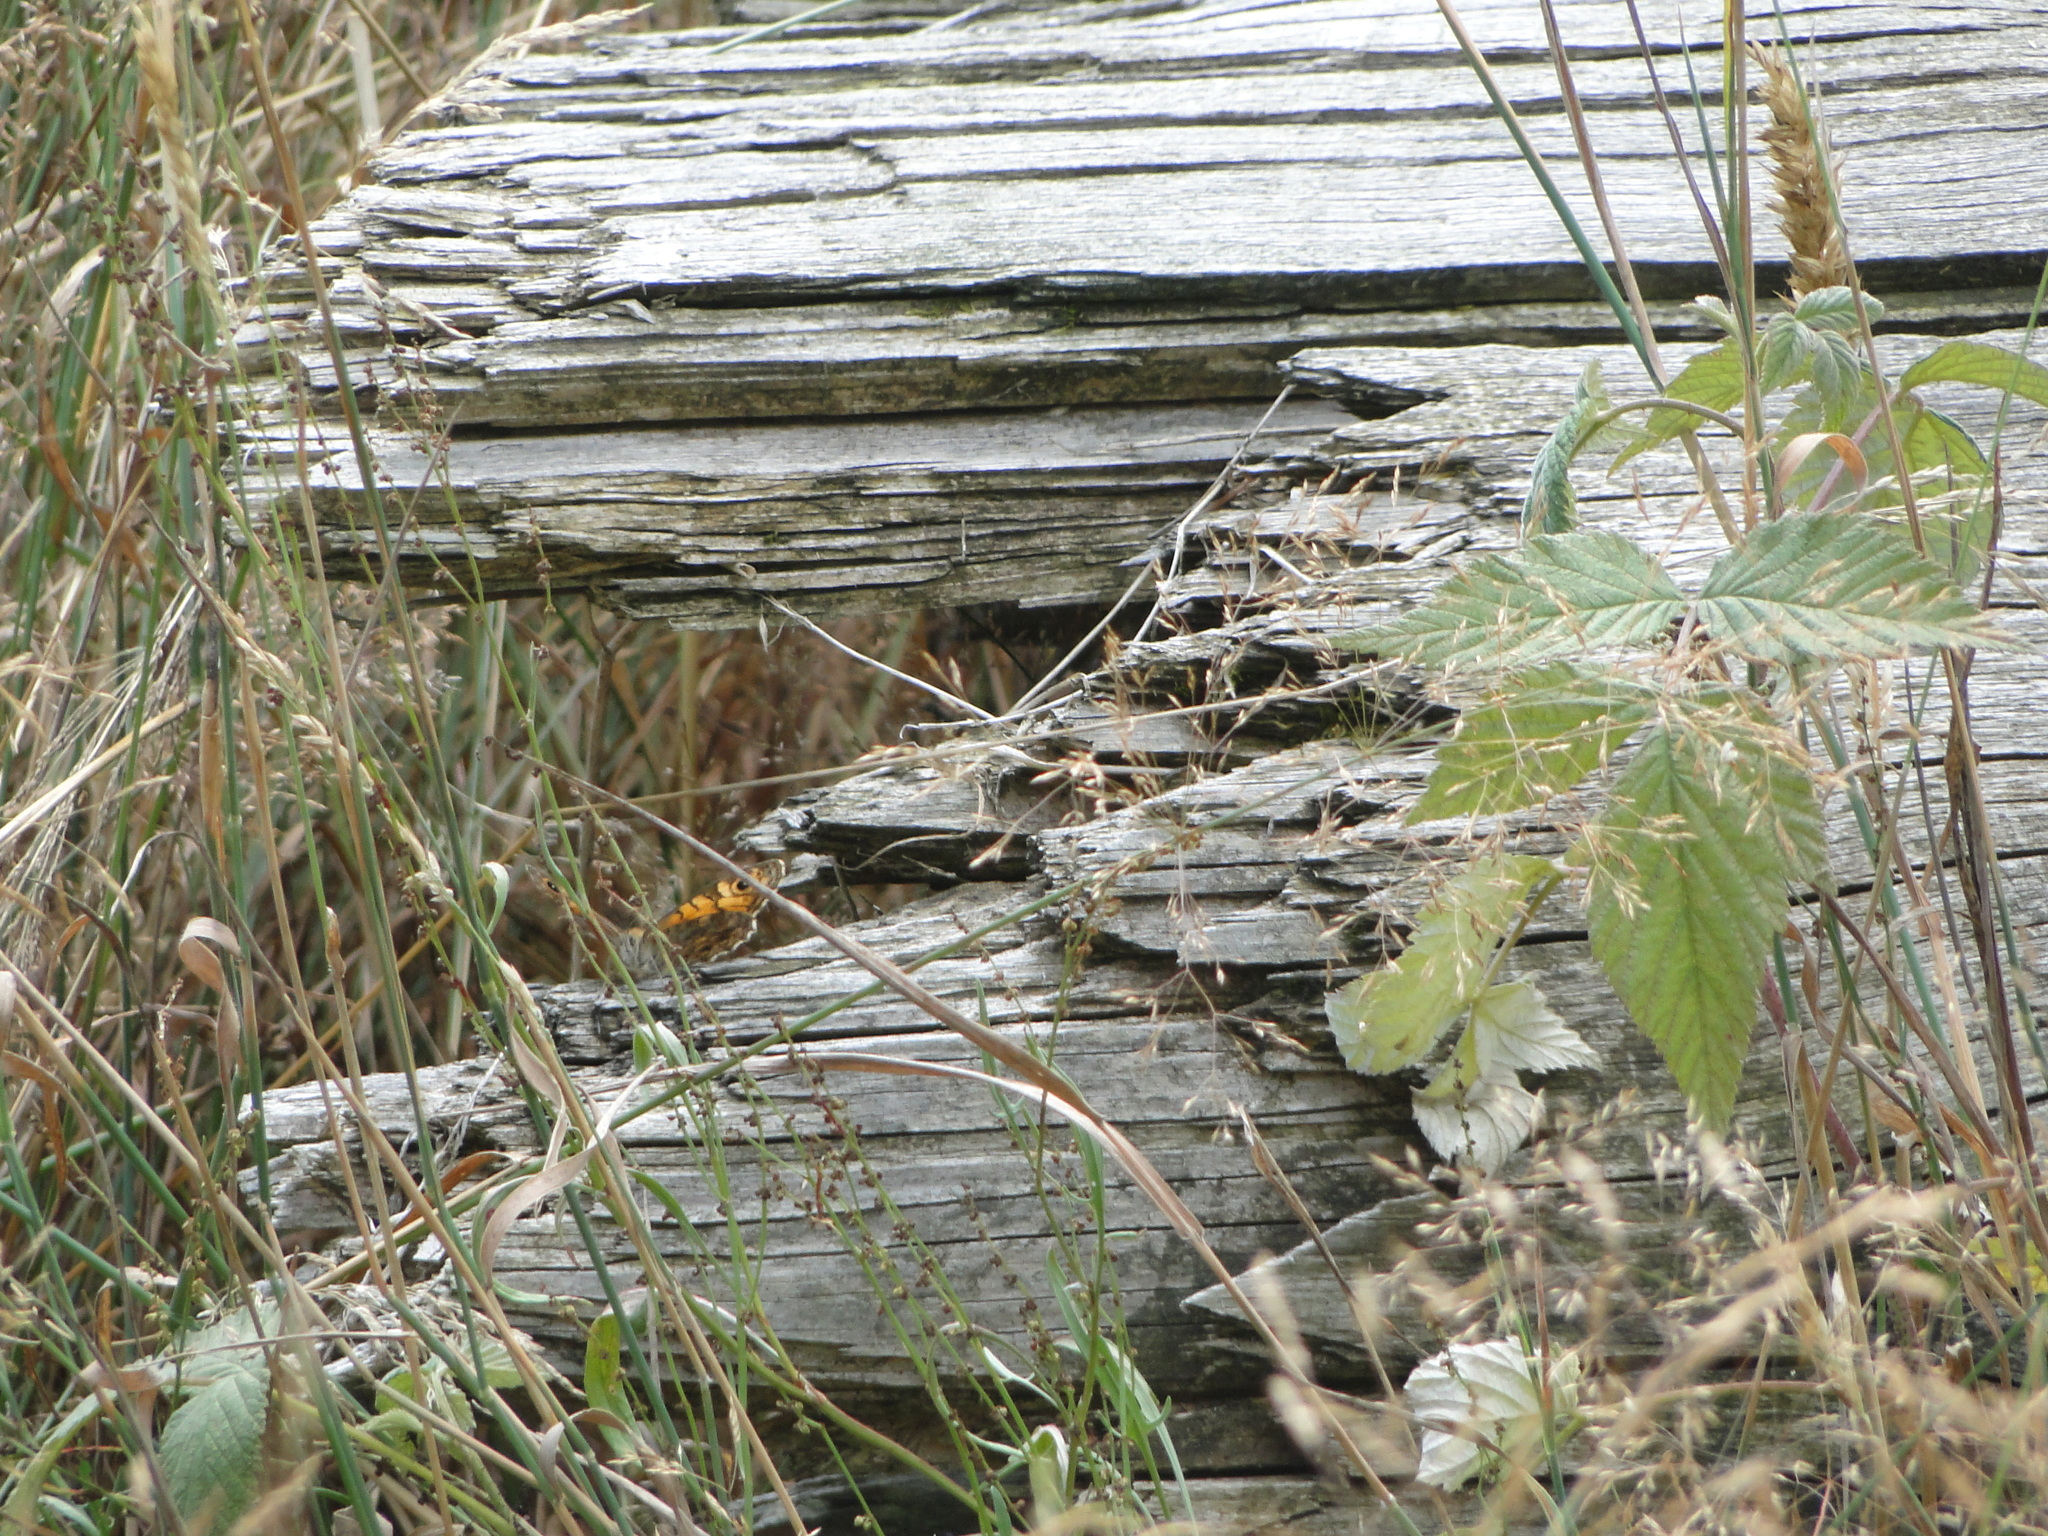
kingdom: Animalia
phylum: Arthropoda
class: Insecta
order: Lepidoptera
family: Nymphalidae
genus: Pararge
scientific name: Pararge Lasiommata megera
